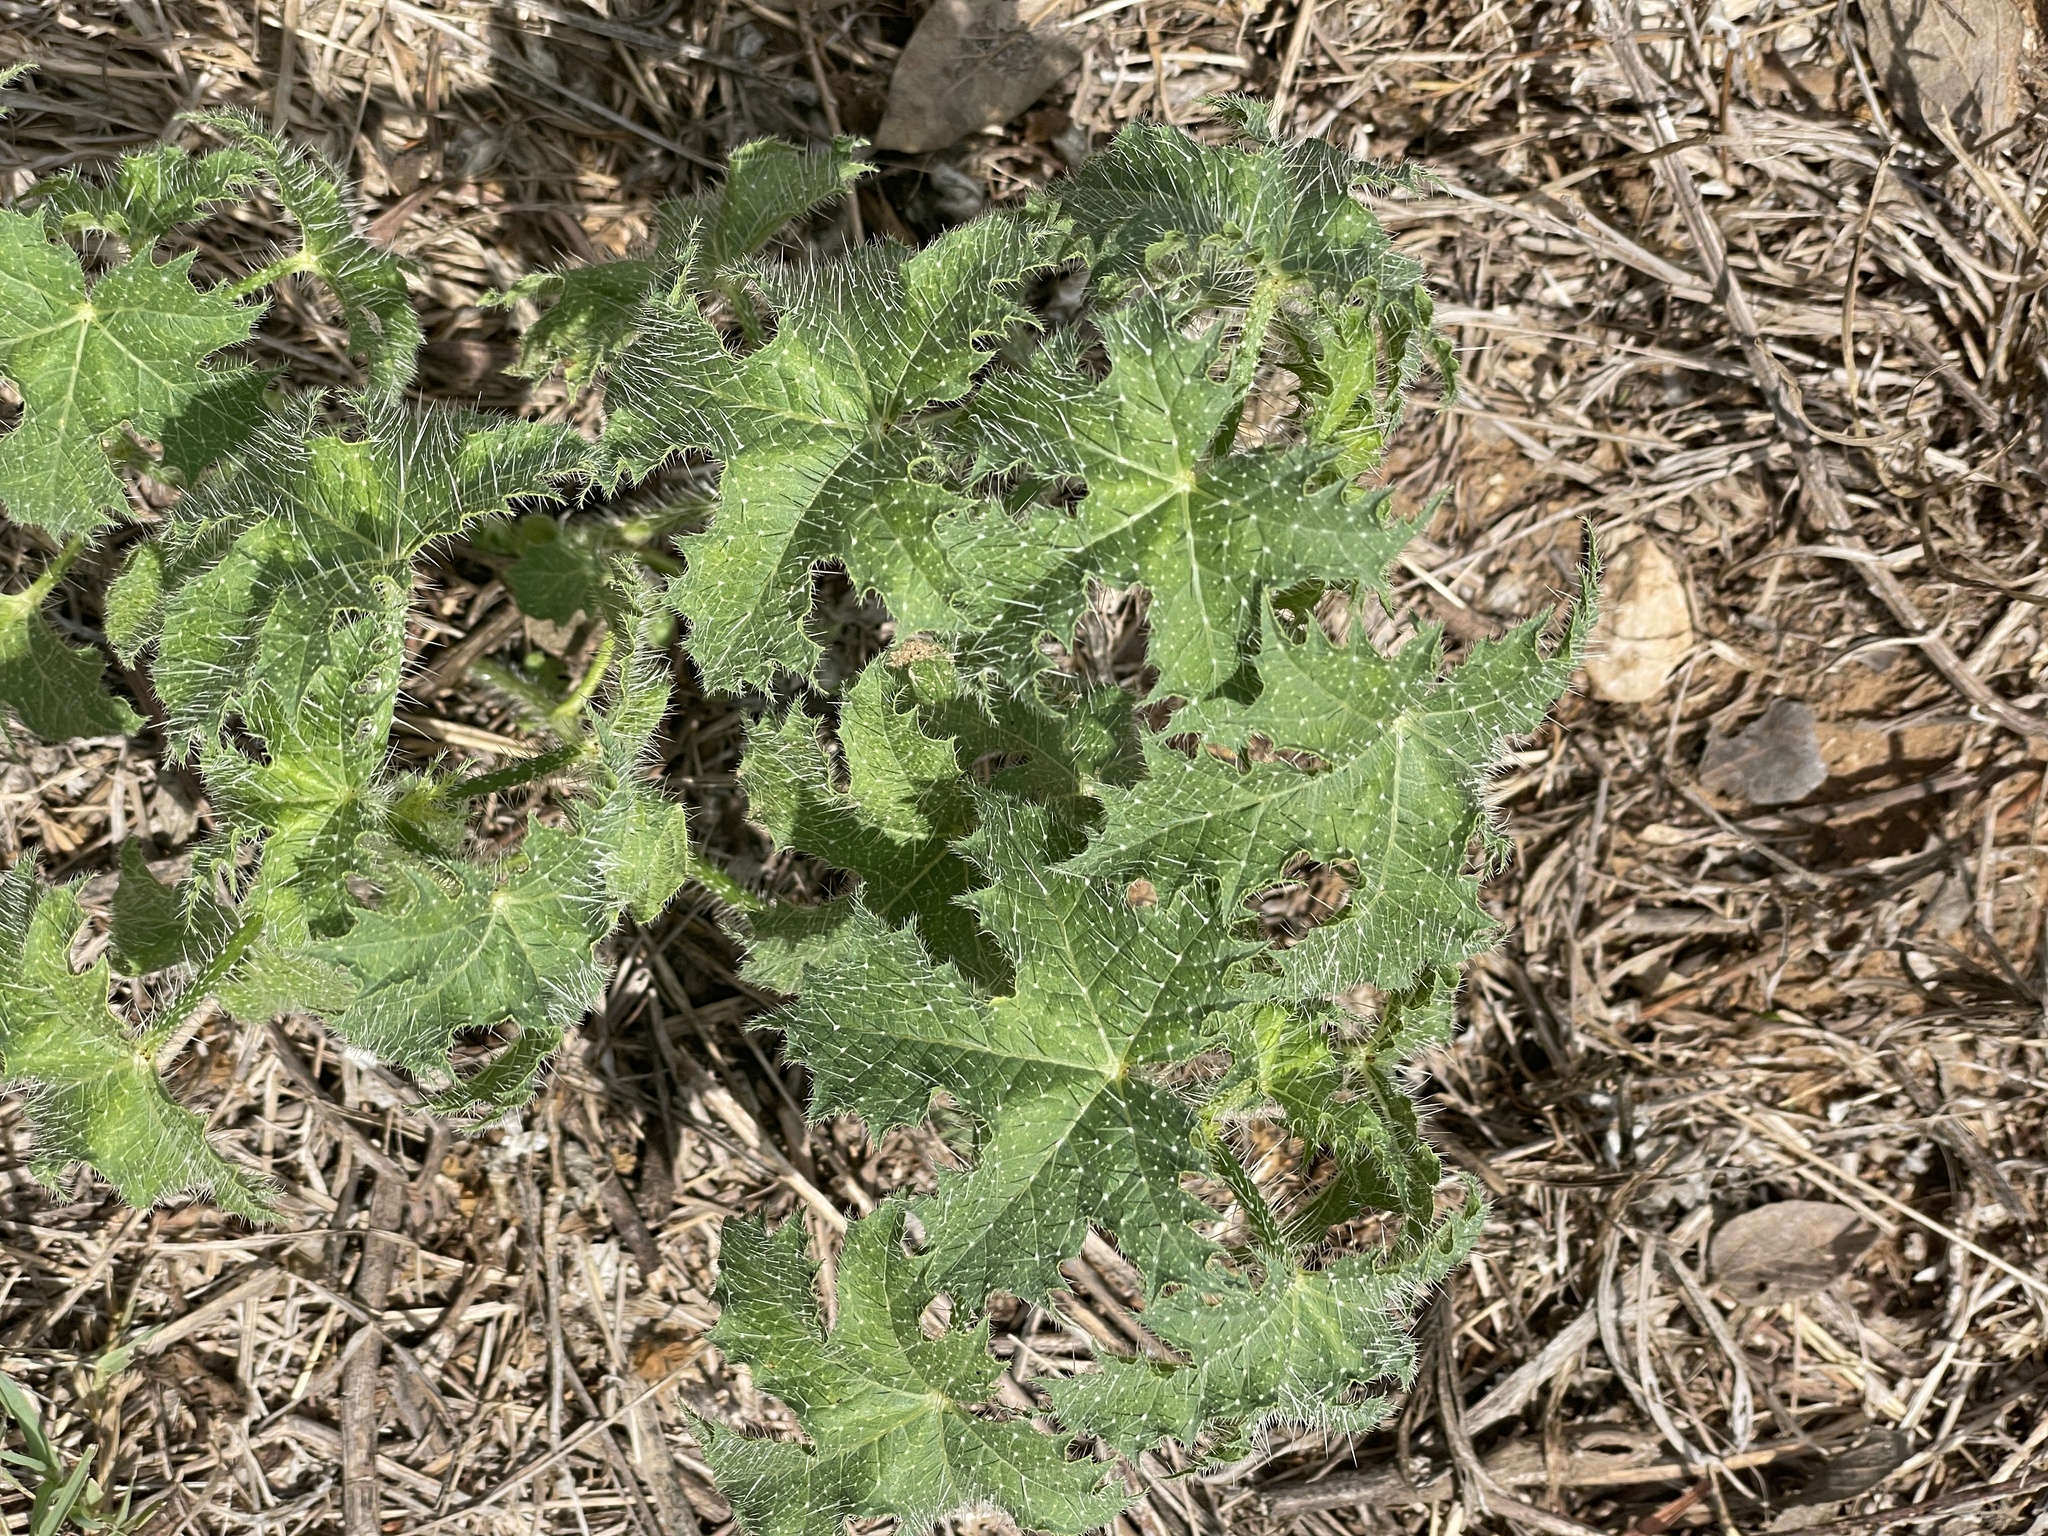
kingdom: Plantae
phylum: Tracheophyta
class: Magnoliopsida
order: Malpighiales
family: Euphorbiaceae
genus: Cnidoscolus
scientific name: Cnidoscolus texanus
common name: Texas bull-nettle
